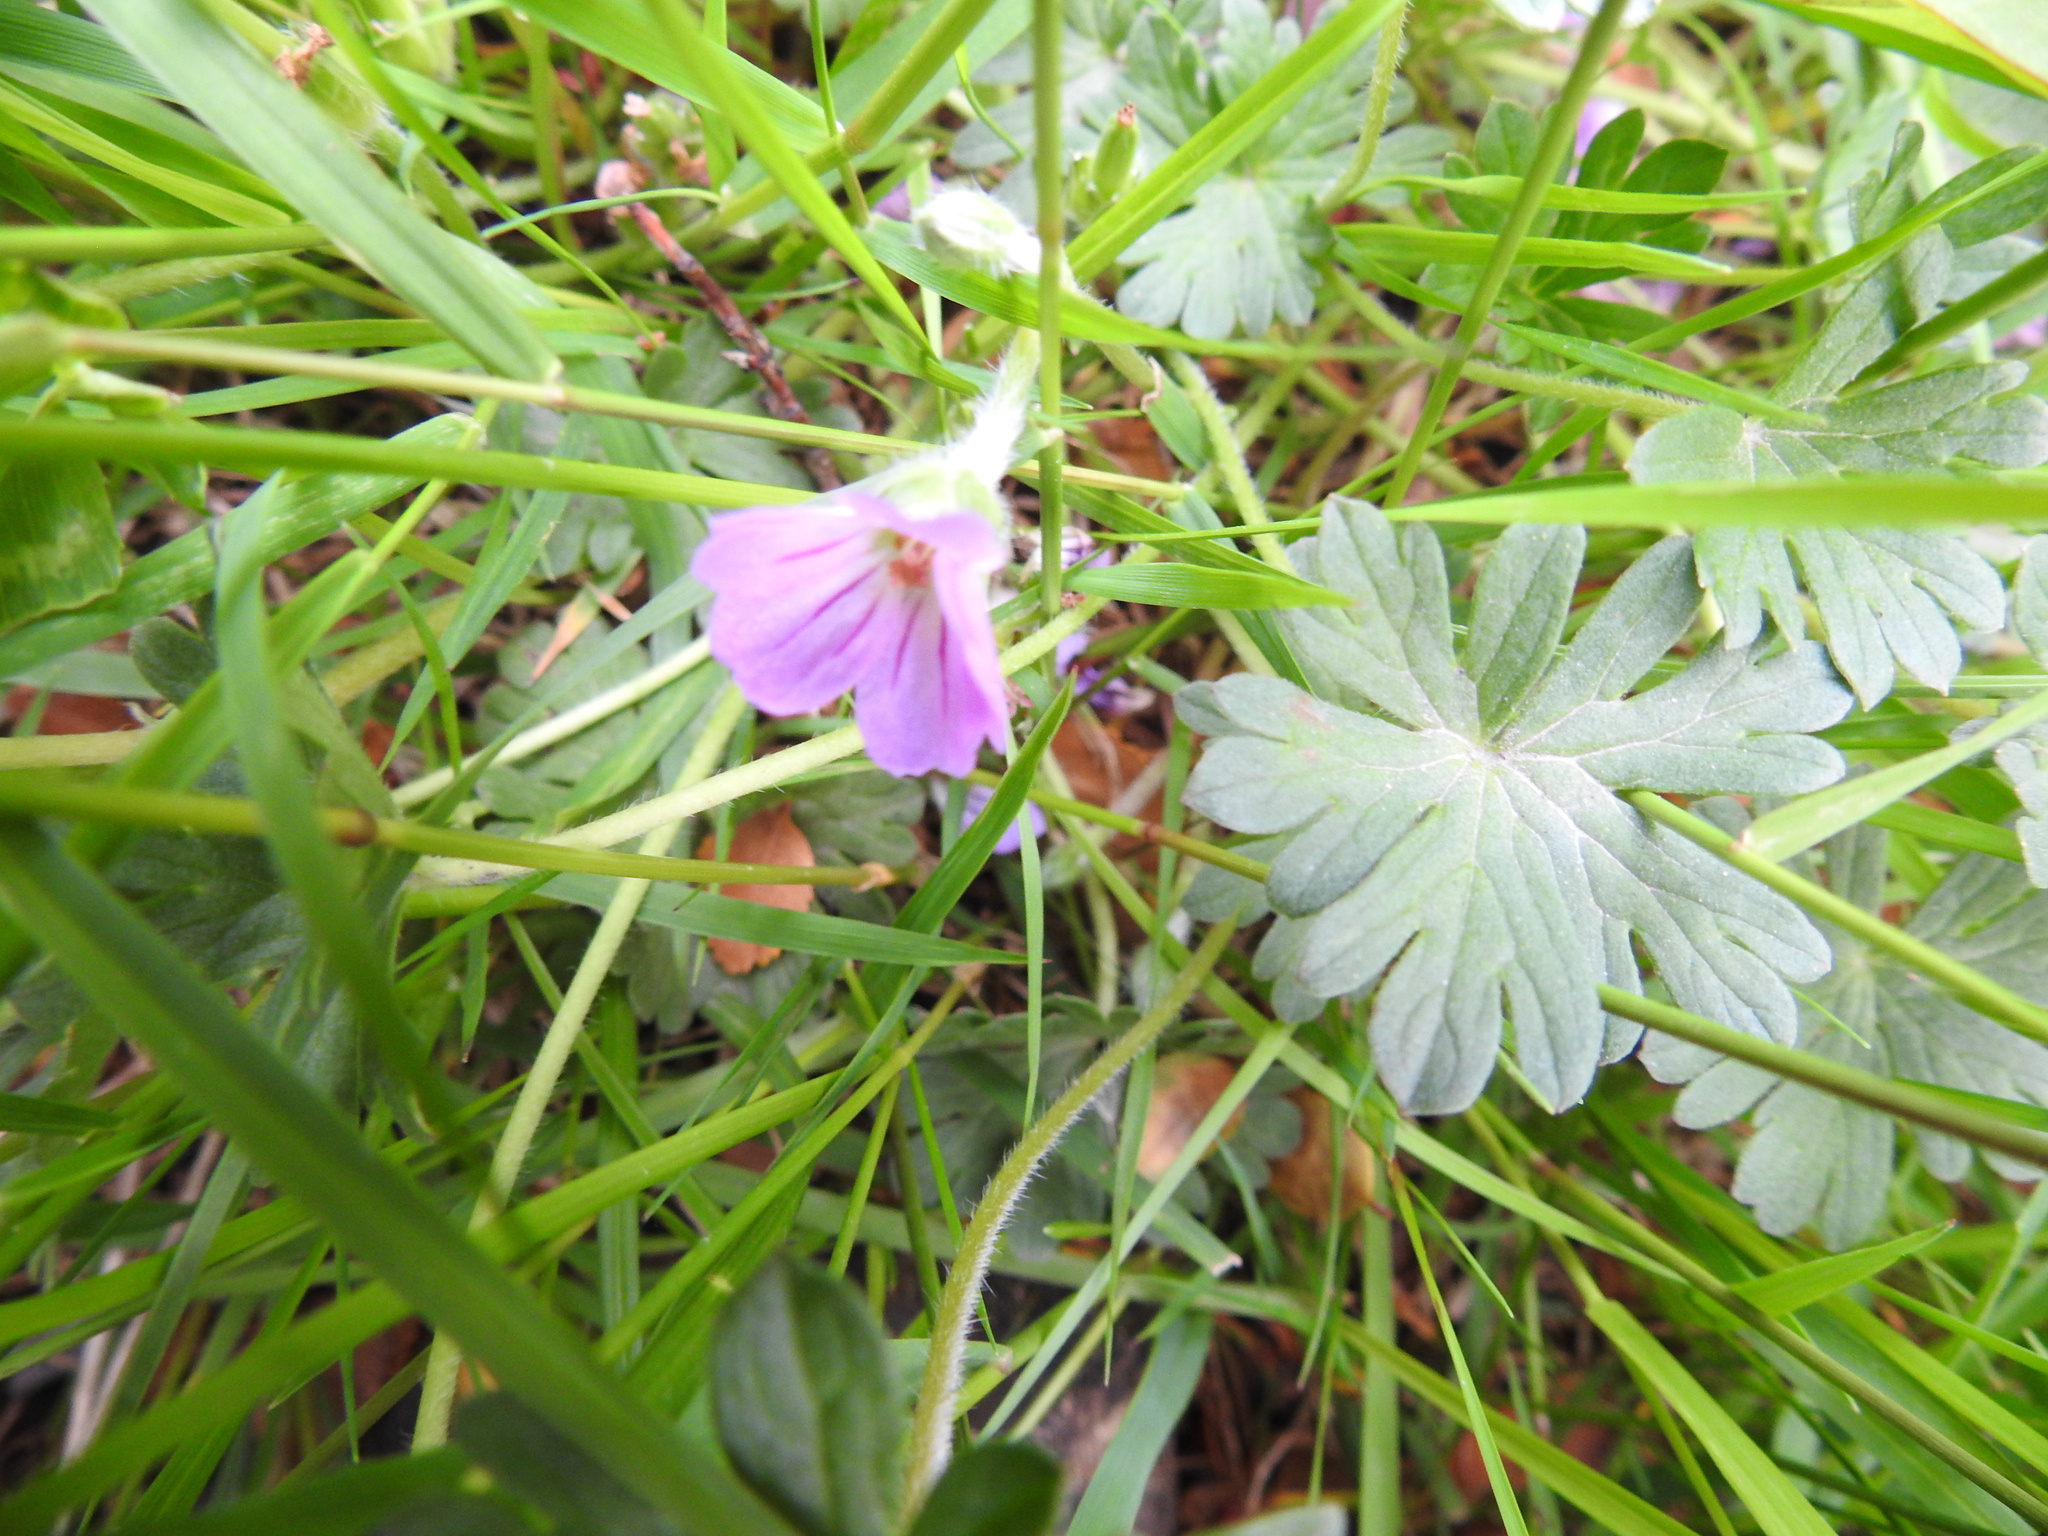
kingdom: Plantae
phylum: Tracheophyta
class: Magnoliopsida
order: Geraniales
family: Geraniaceae
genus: Geranium
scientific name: Geranium magellanicum
